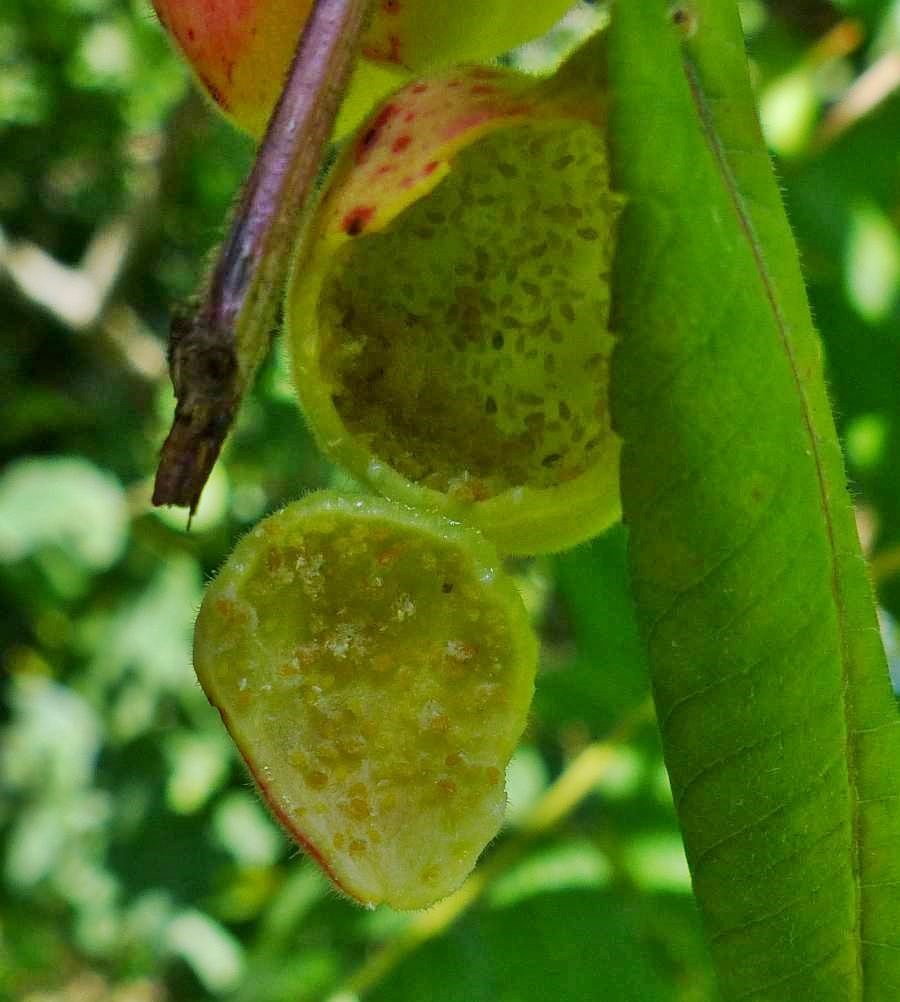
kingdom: Animalia
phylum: Arthropoda
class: Insecta
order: Hemiptera
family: Aphididae
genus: Melaphis
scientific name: Melaphis rhois
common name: Sumac gall aphid
